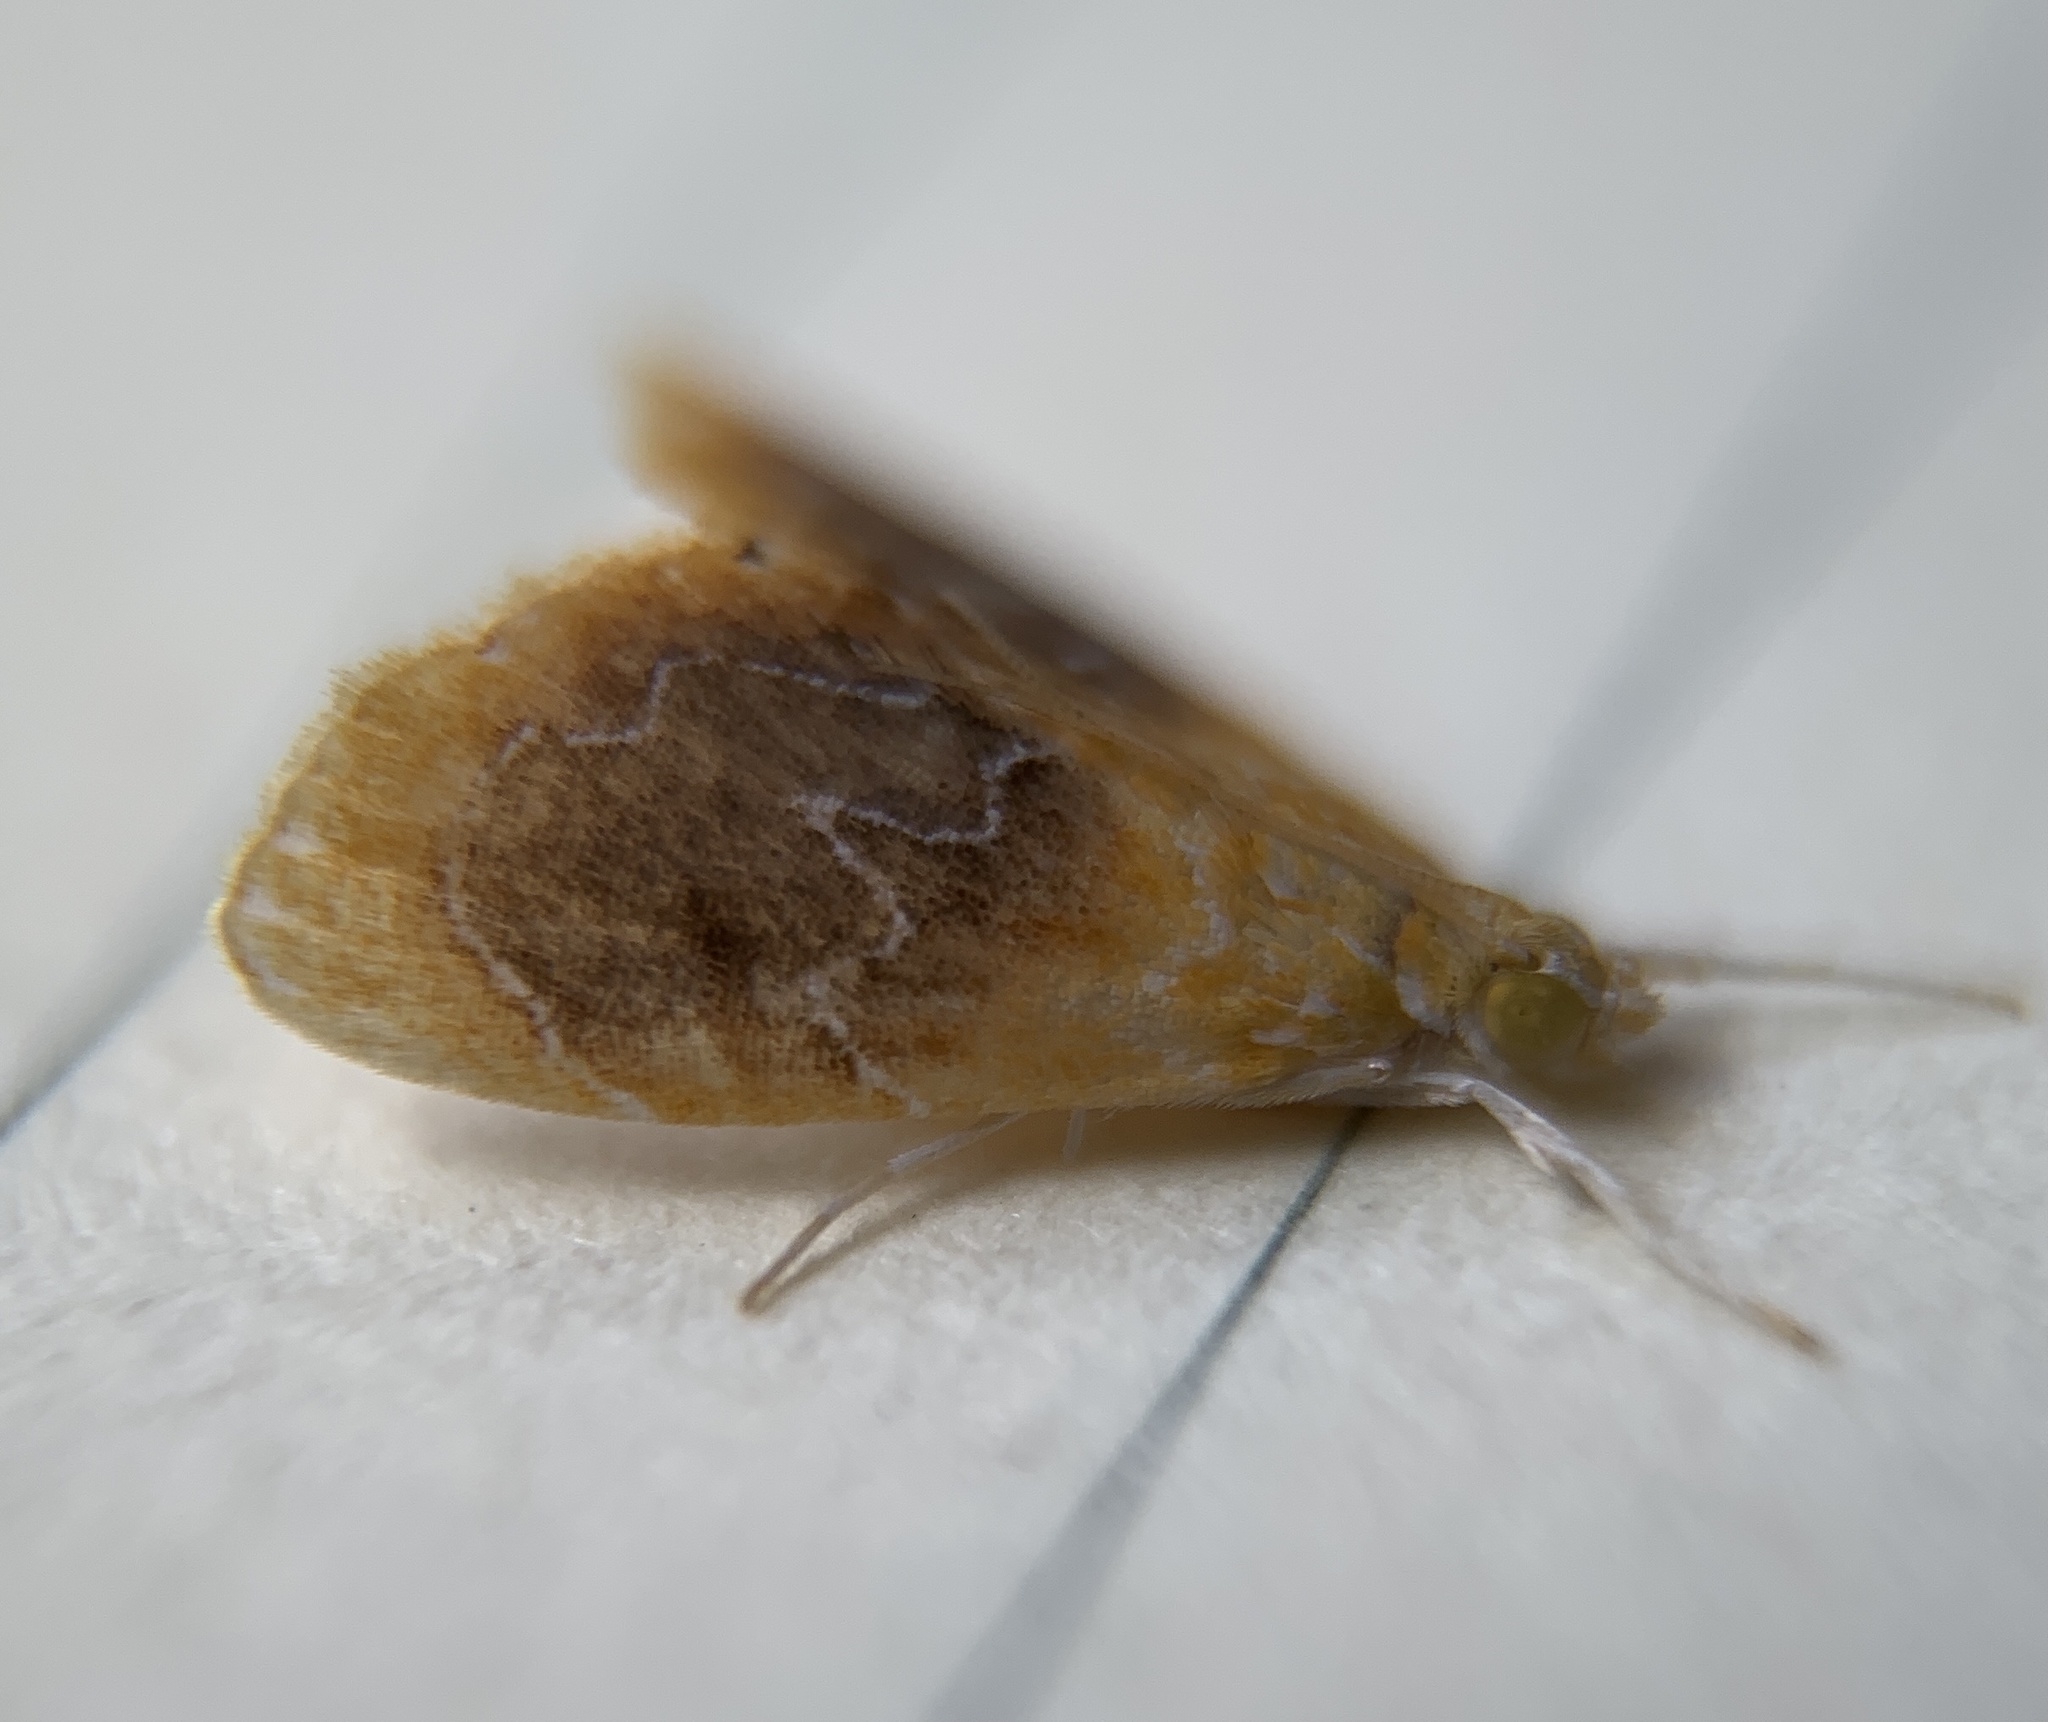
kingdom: Animalia
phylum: Arthropoda
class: Insecta
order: Lepidoptera
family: Crambidae
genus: Glaphyria
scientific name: Glaphyria cappsi
